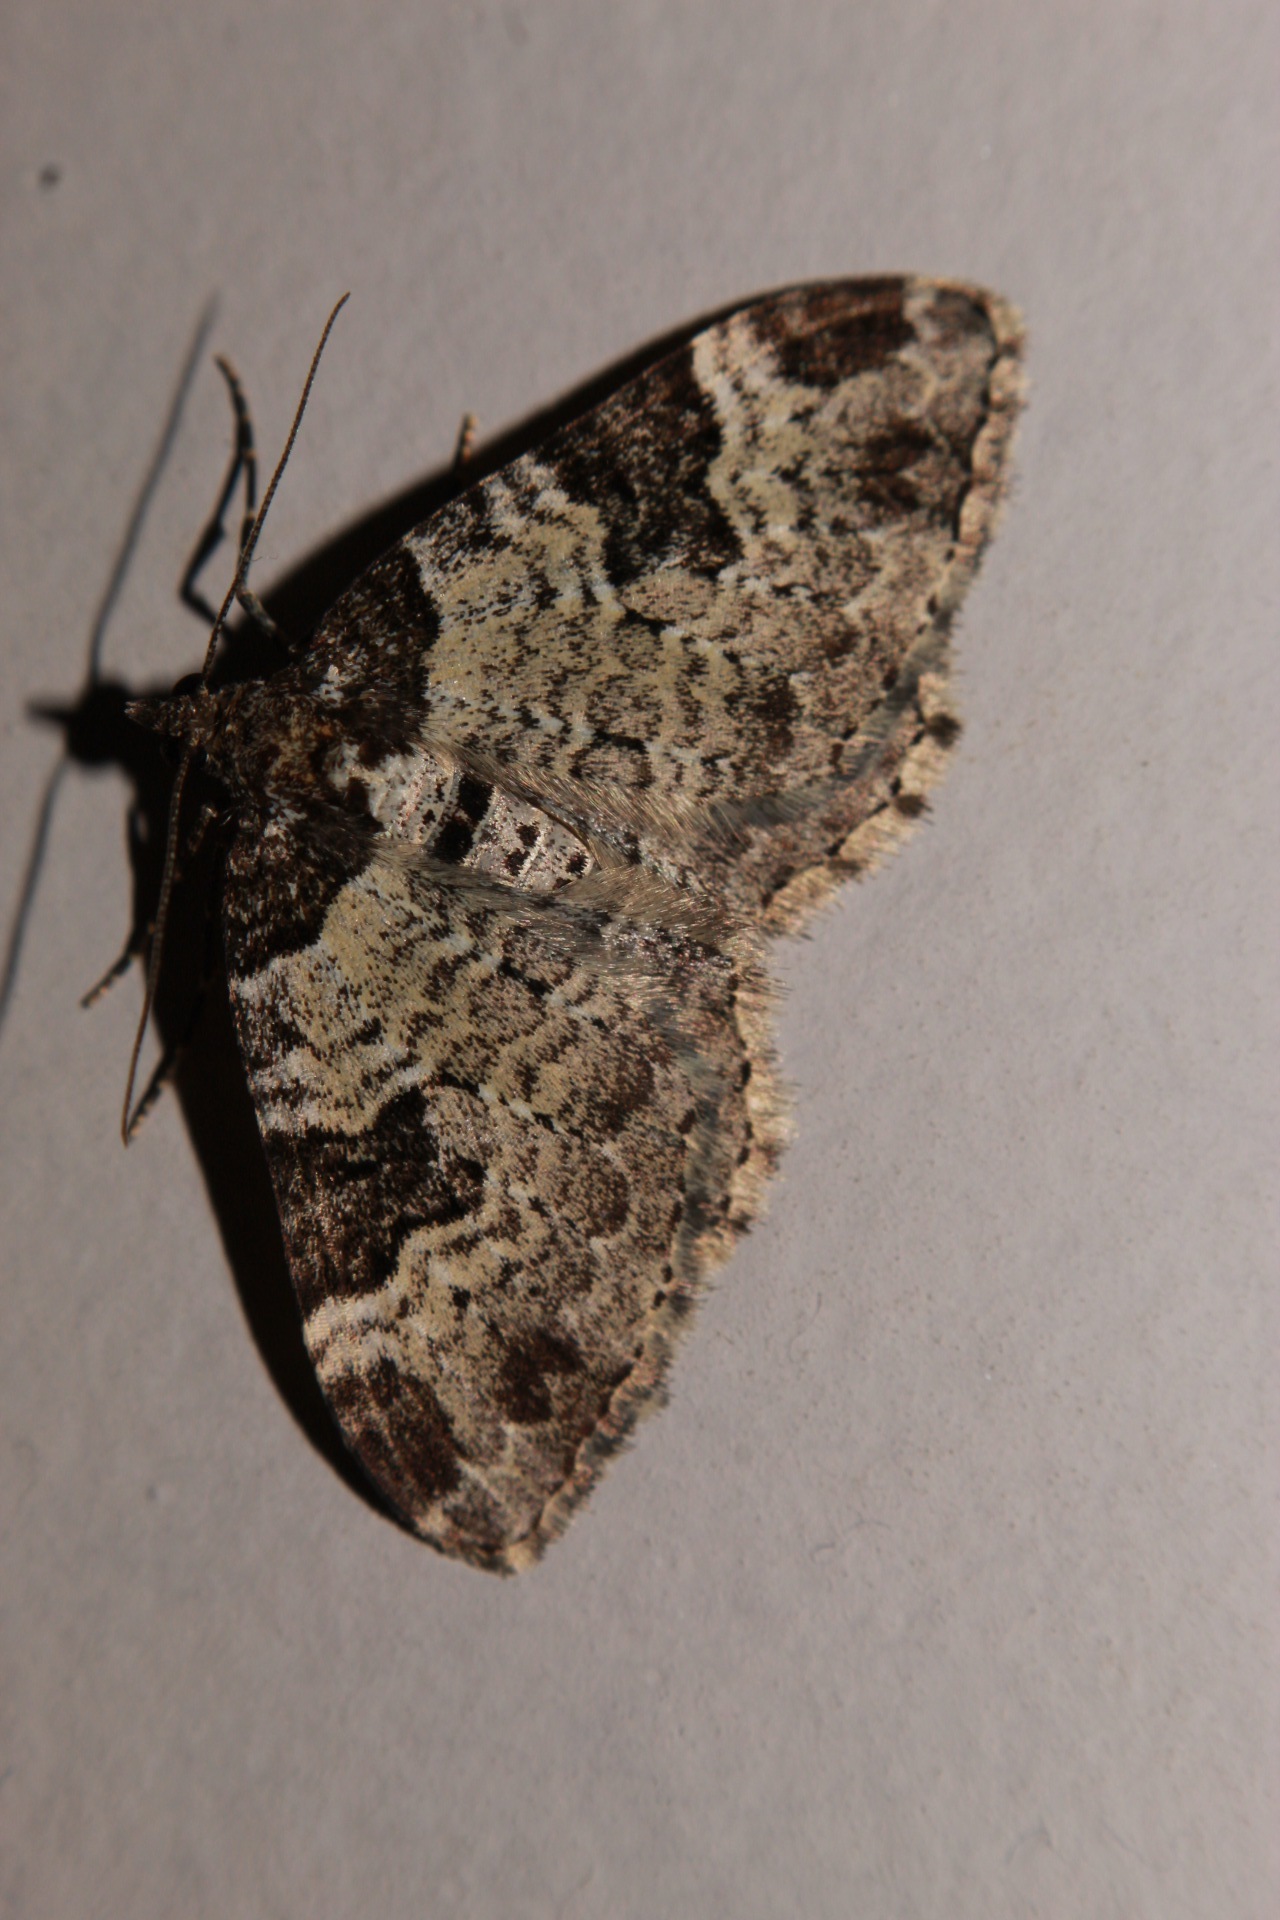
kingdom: Animalia
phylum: Arthropoda
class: Insecta
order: Lepidoptera
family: Geometridae
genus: Xanthorhoe
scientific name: Xanthorhoe fluctuata
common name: Garden carpet
